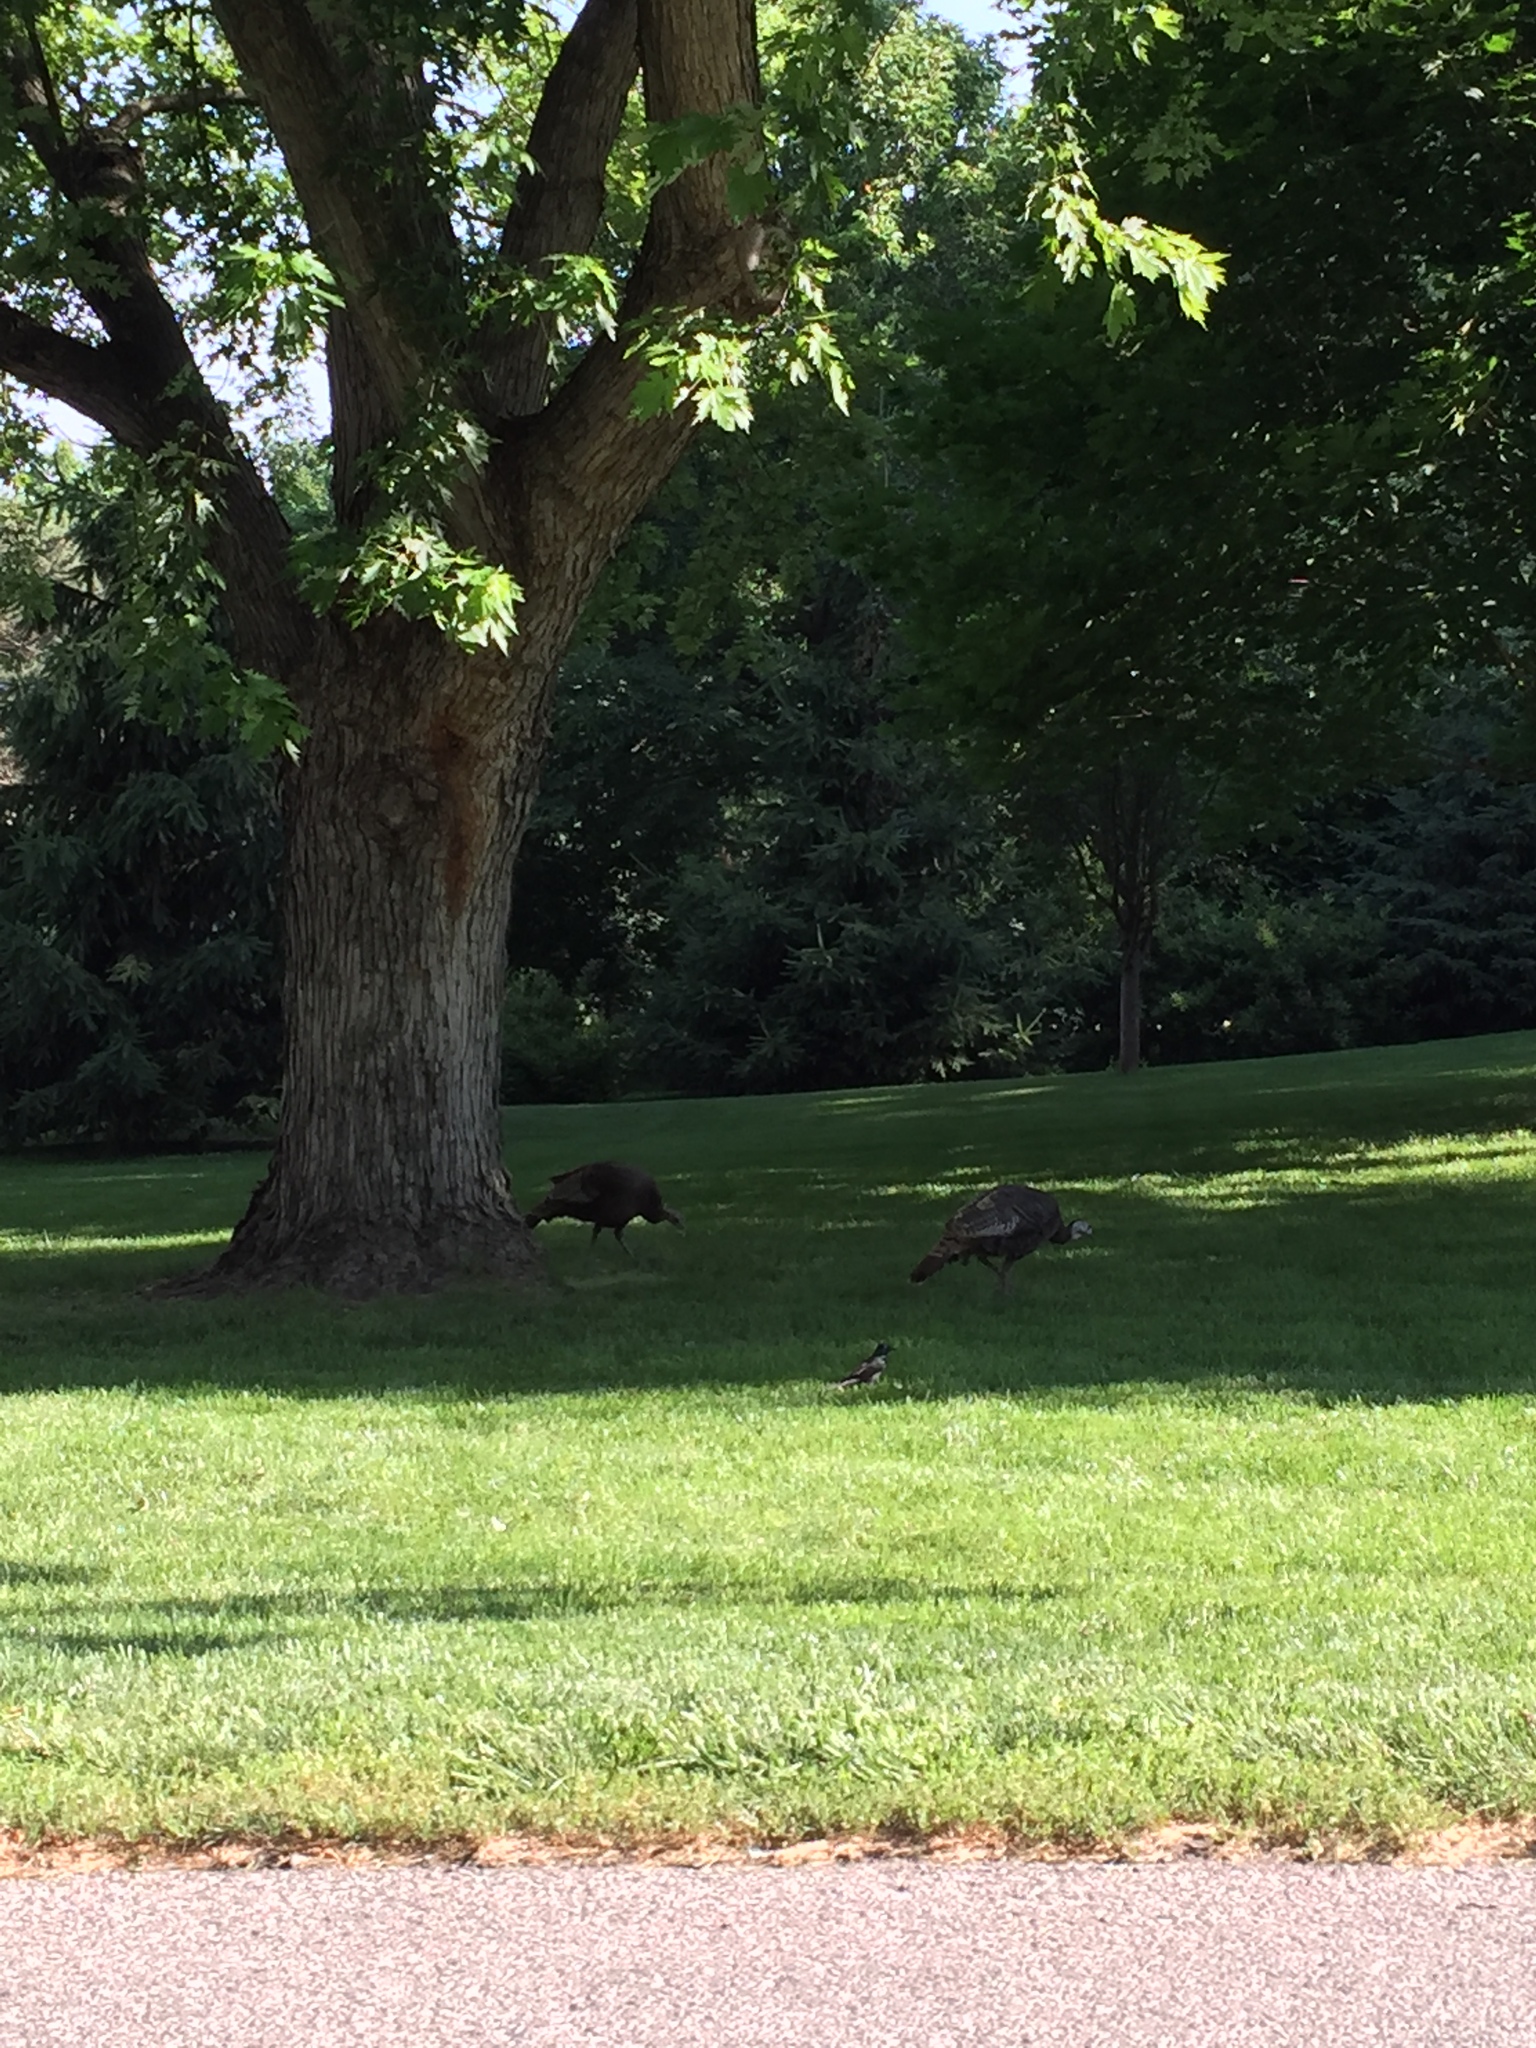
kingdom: Animalia
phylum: Chordata
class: Aves
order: Galliformes
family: Phasianidae
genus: Meleagris
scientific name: Meleagris gallopavo
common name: Wild turkey
